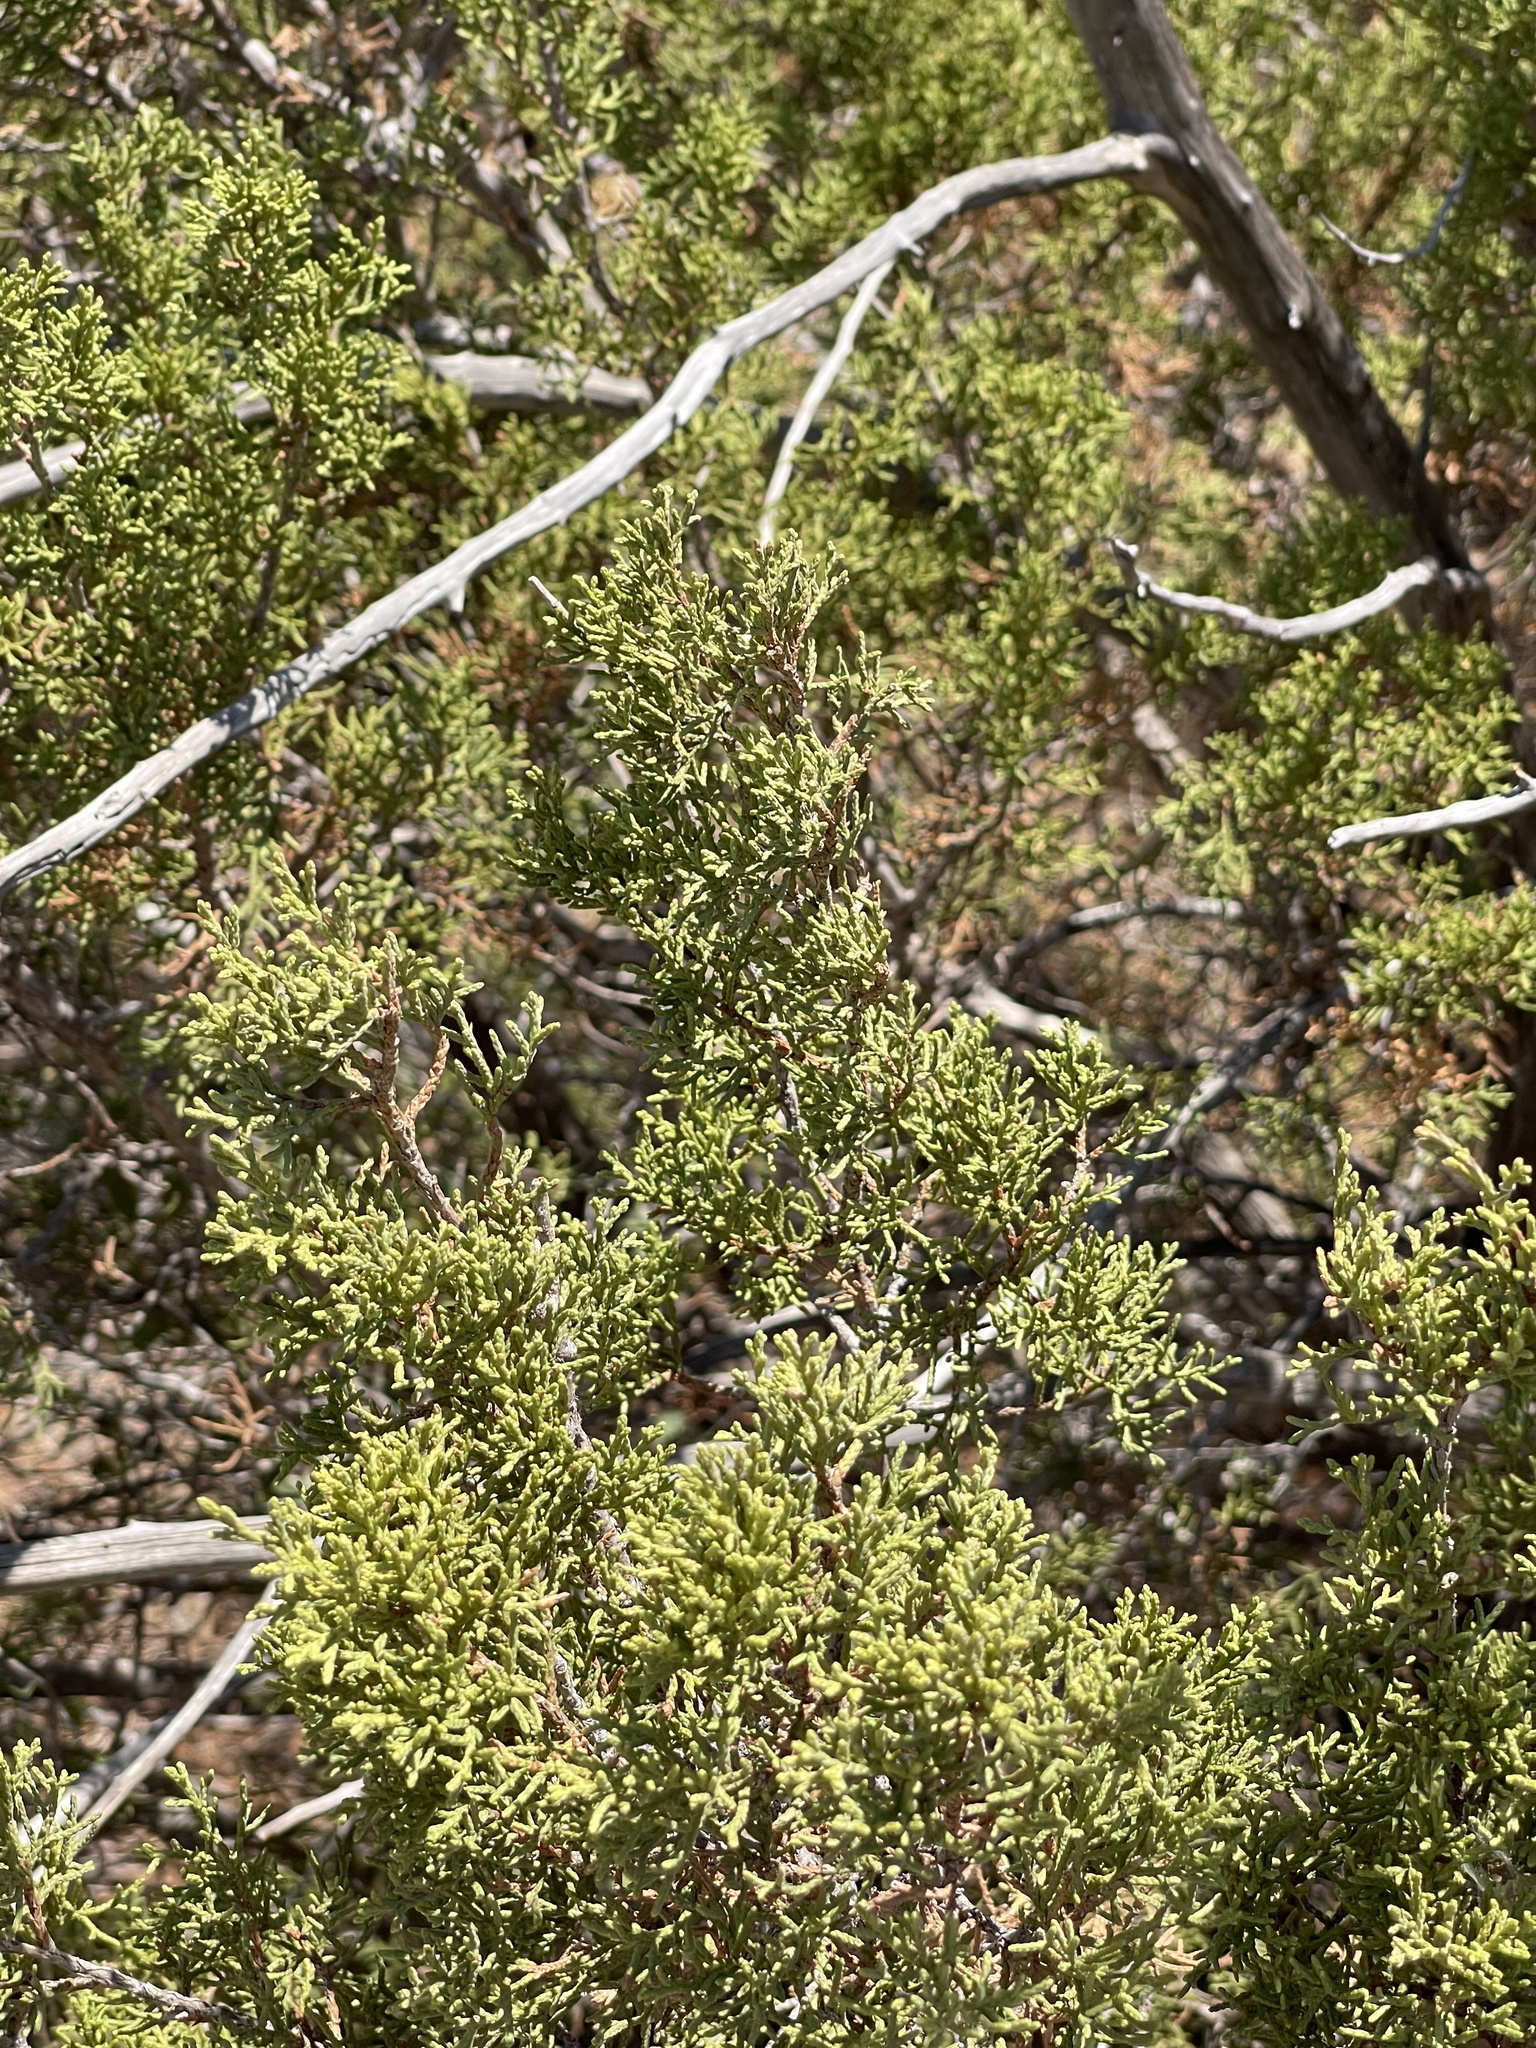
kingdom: Plantae
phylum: Tracheophyta
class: Pinopsida
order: Pinales
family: Cupressaceae
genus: Juniperus
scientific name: Juniperus pinchotii
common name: Pinchot juniper
